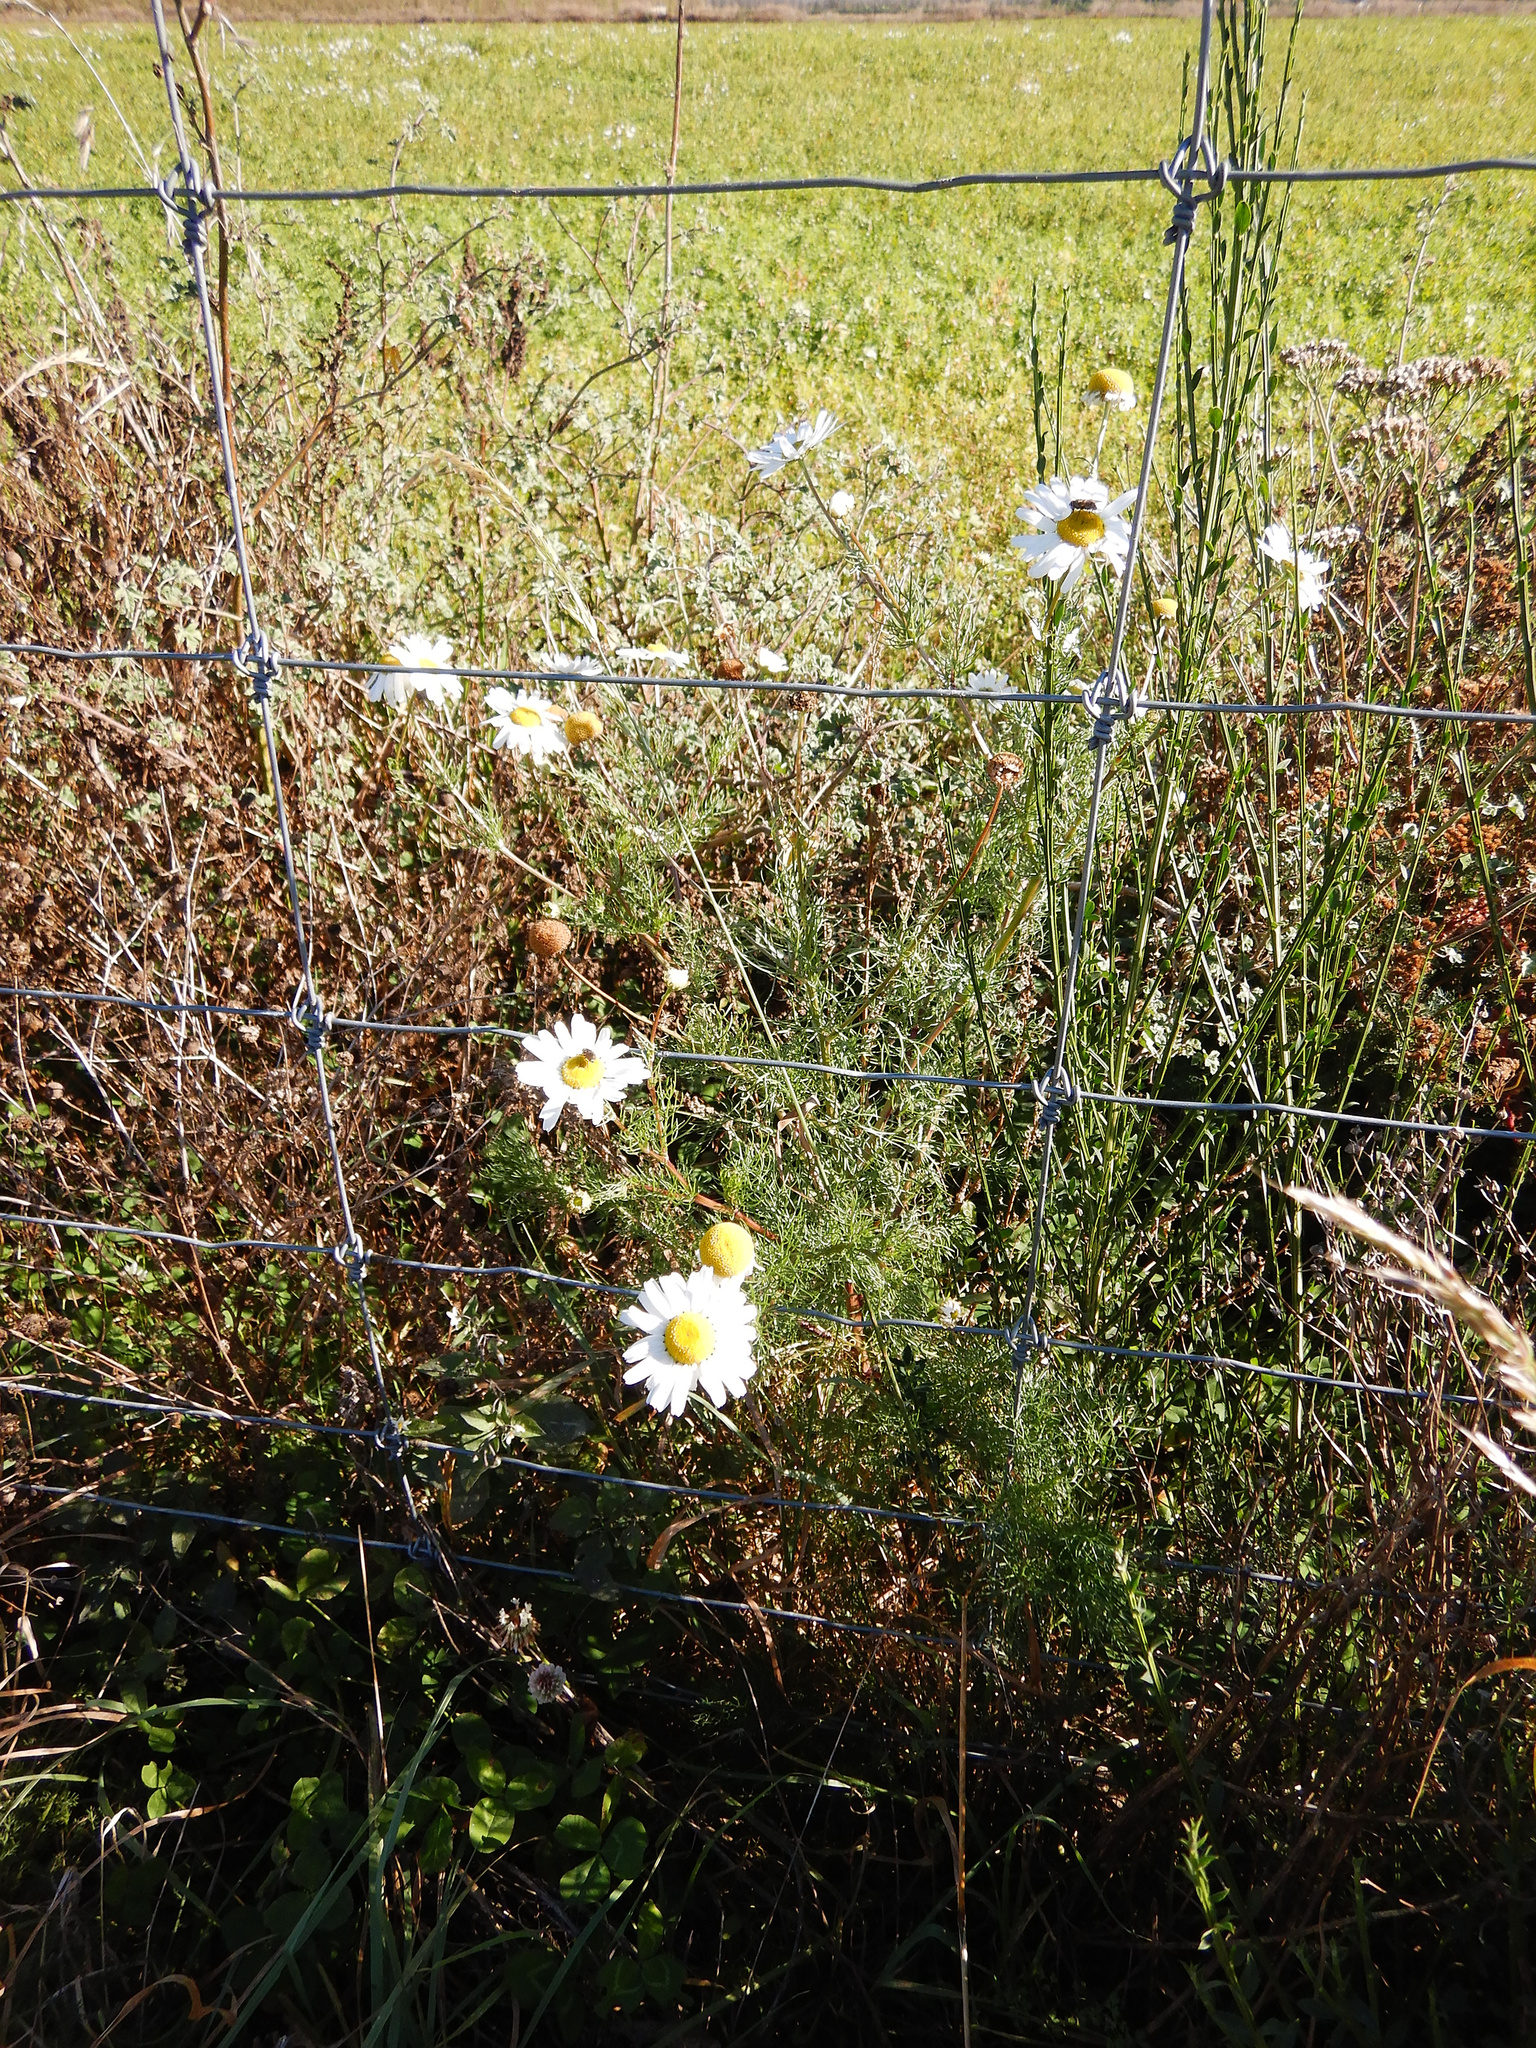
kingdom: Plantae
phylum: Tracheophyta
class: Magnoliopsida
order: Asterales
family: Asteraceae
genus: Tripleurospermum
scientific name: Tripleurospermum inodorum
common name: Scentless mayweed
